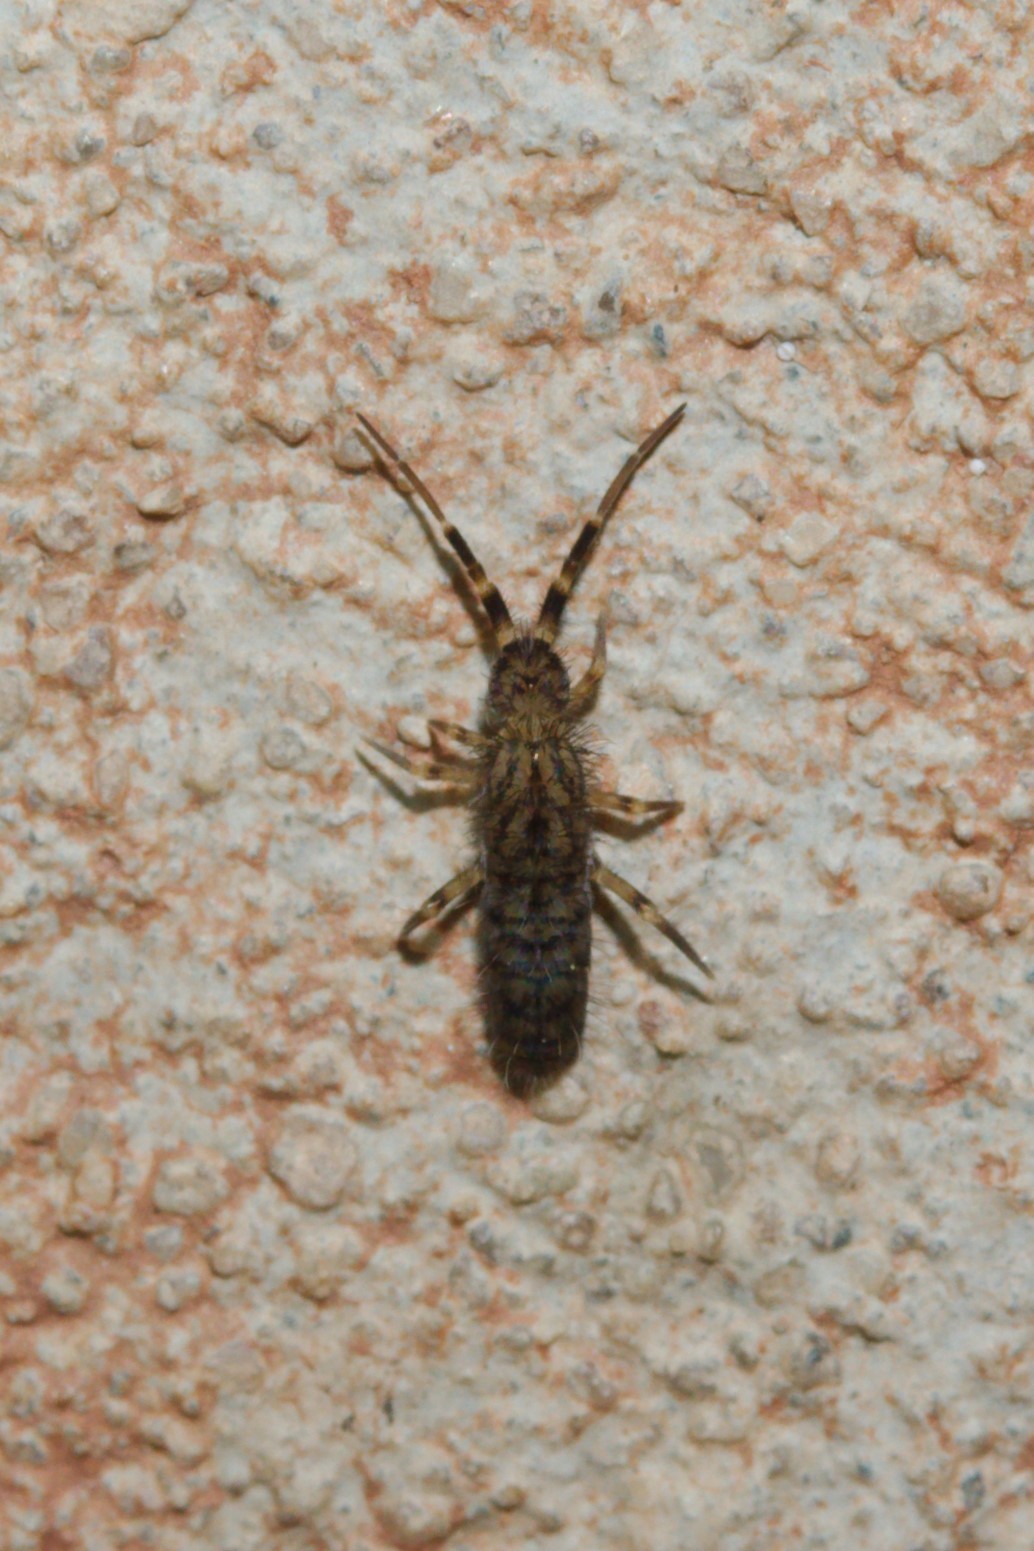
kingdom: Animalia
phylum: Arthropoda
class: Collembola
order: Entomobryomorpha
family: Orchesellidae
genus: Orchesella
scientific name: Orchesella villosa
